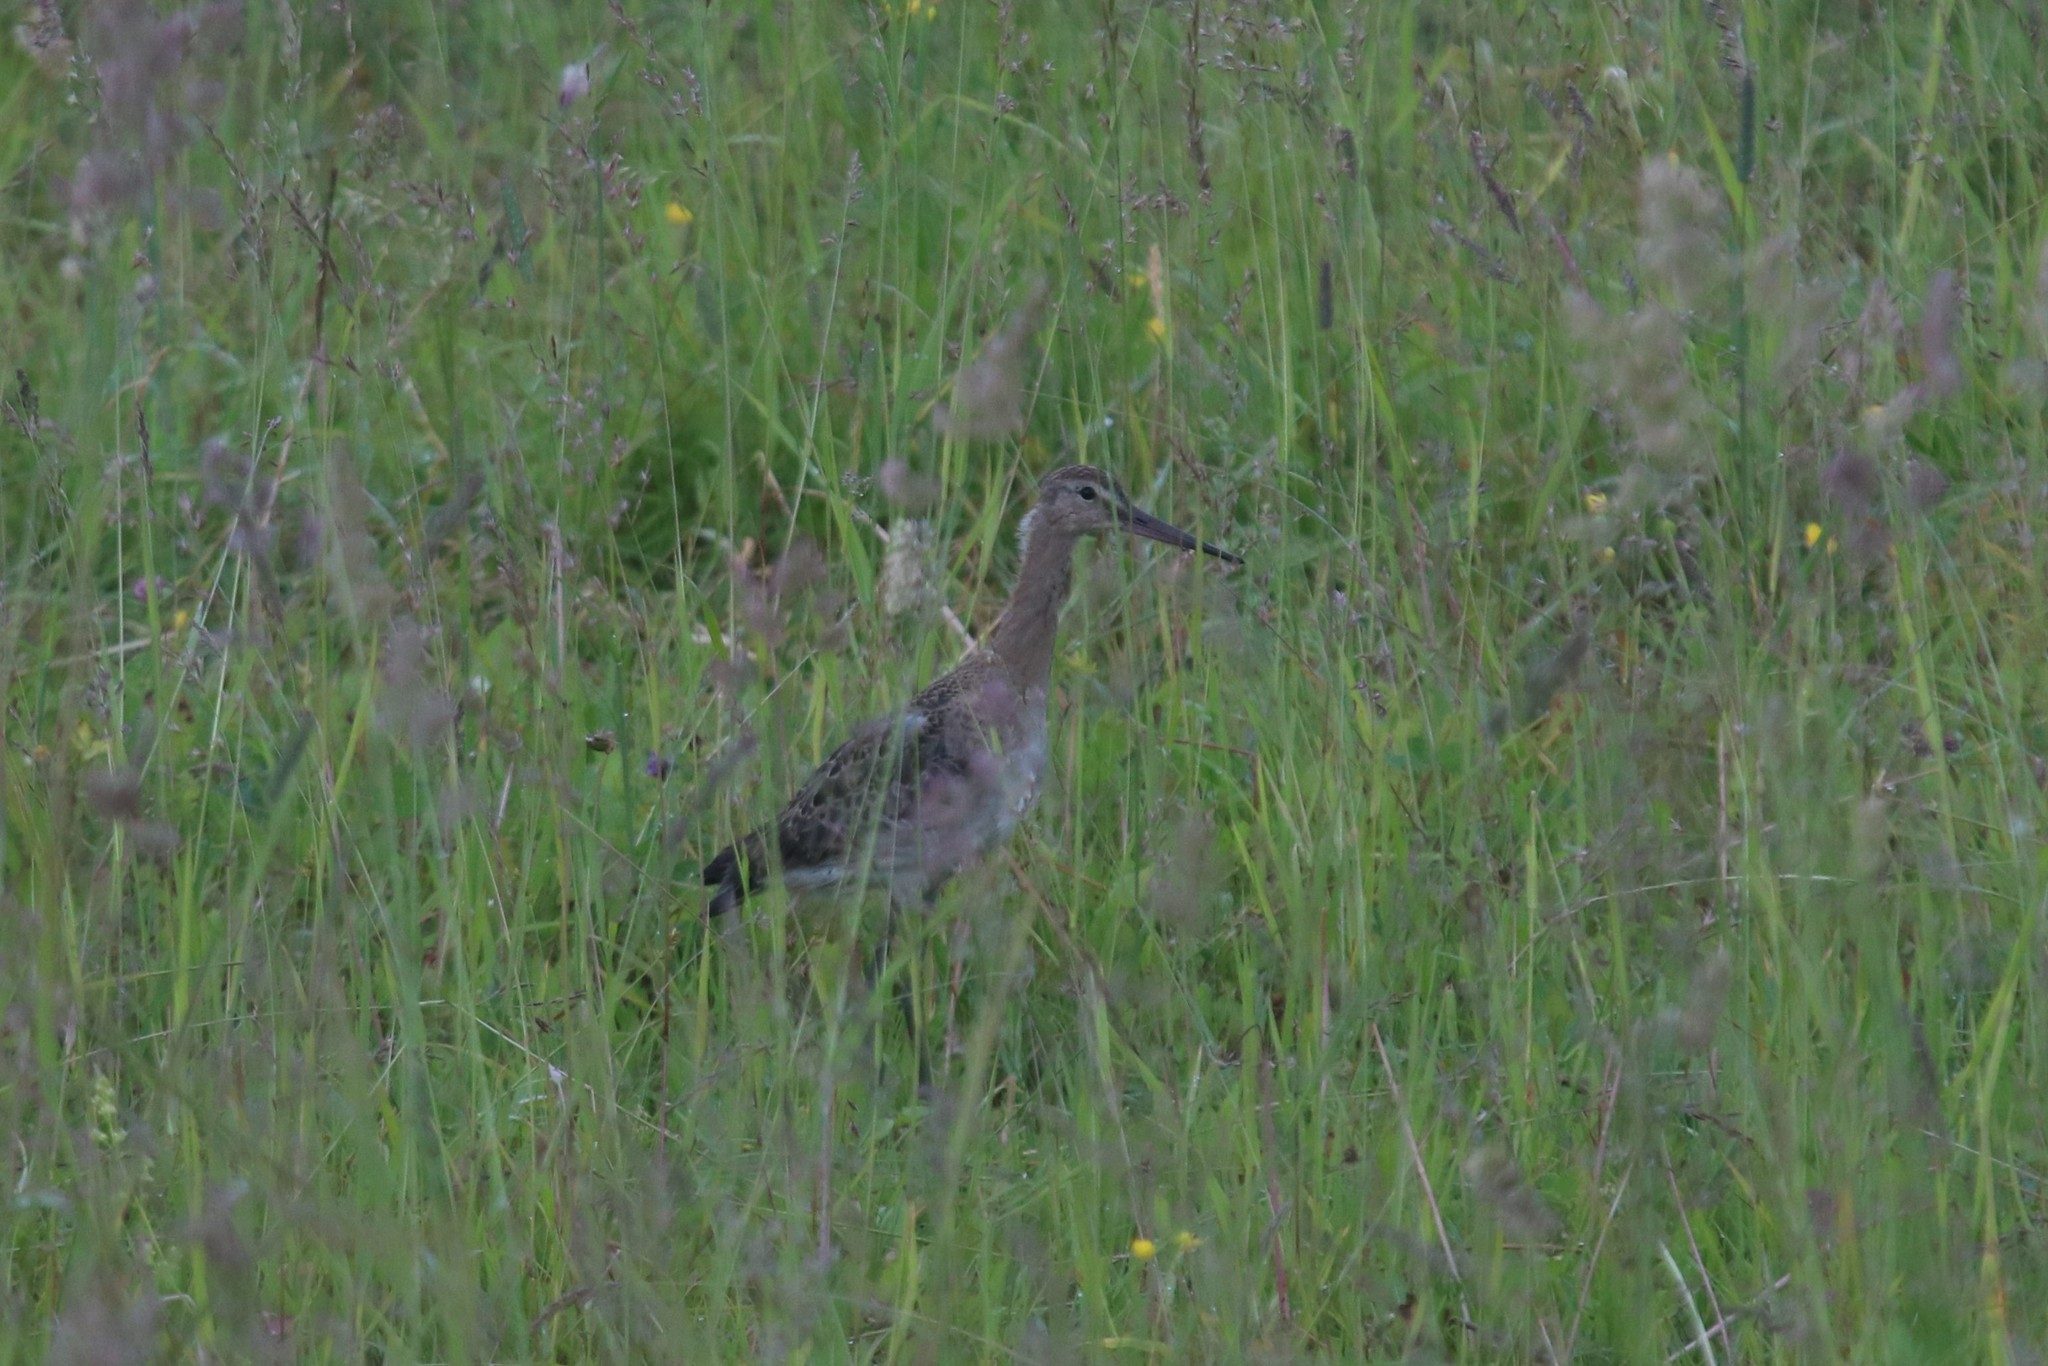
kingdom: Animalia
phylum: Chordata
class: Aves
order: Charadriiformes
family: Scolopacidae
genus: Limosa
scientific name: Limosa limosa
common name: Black-tailed godwit
